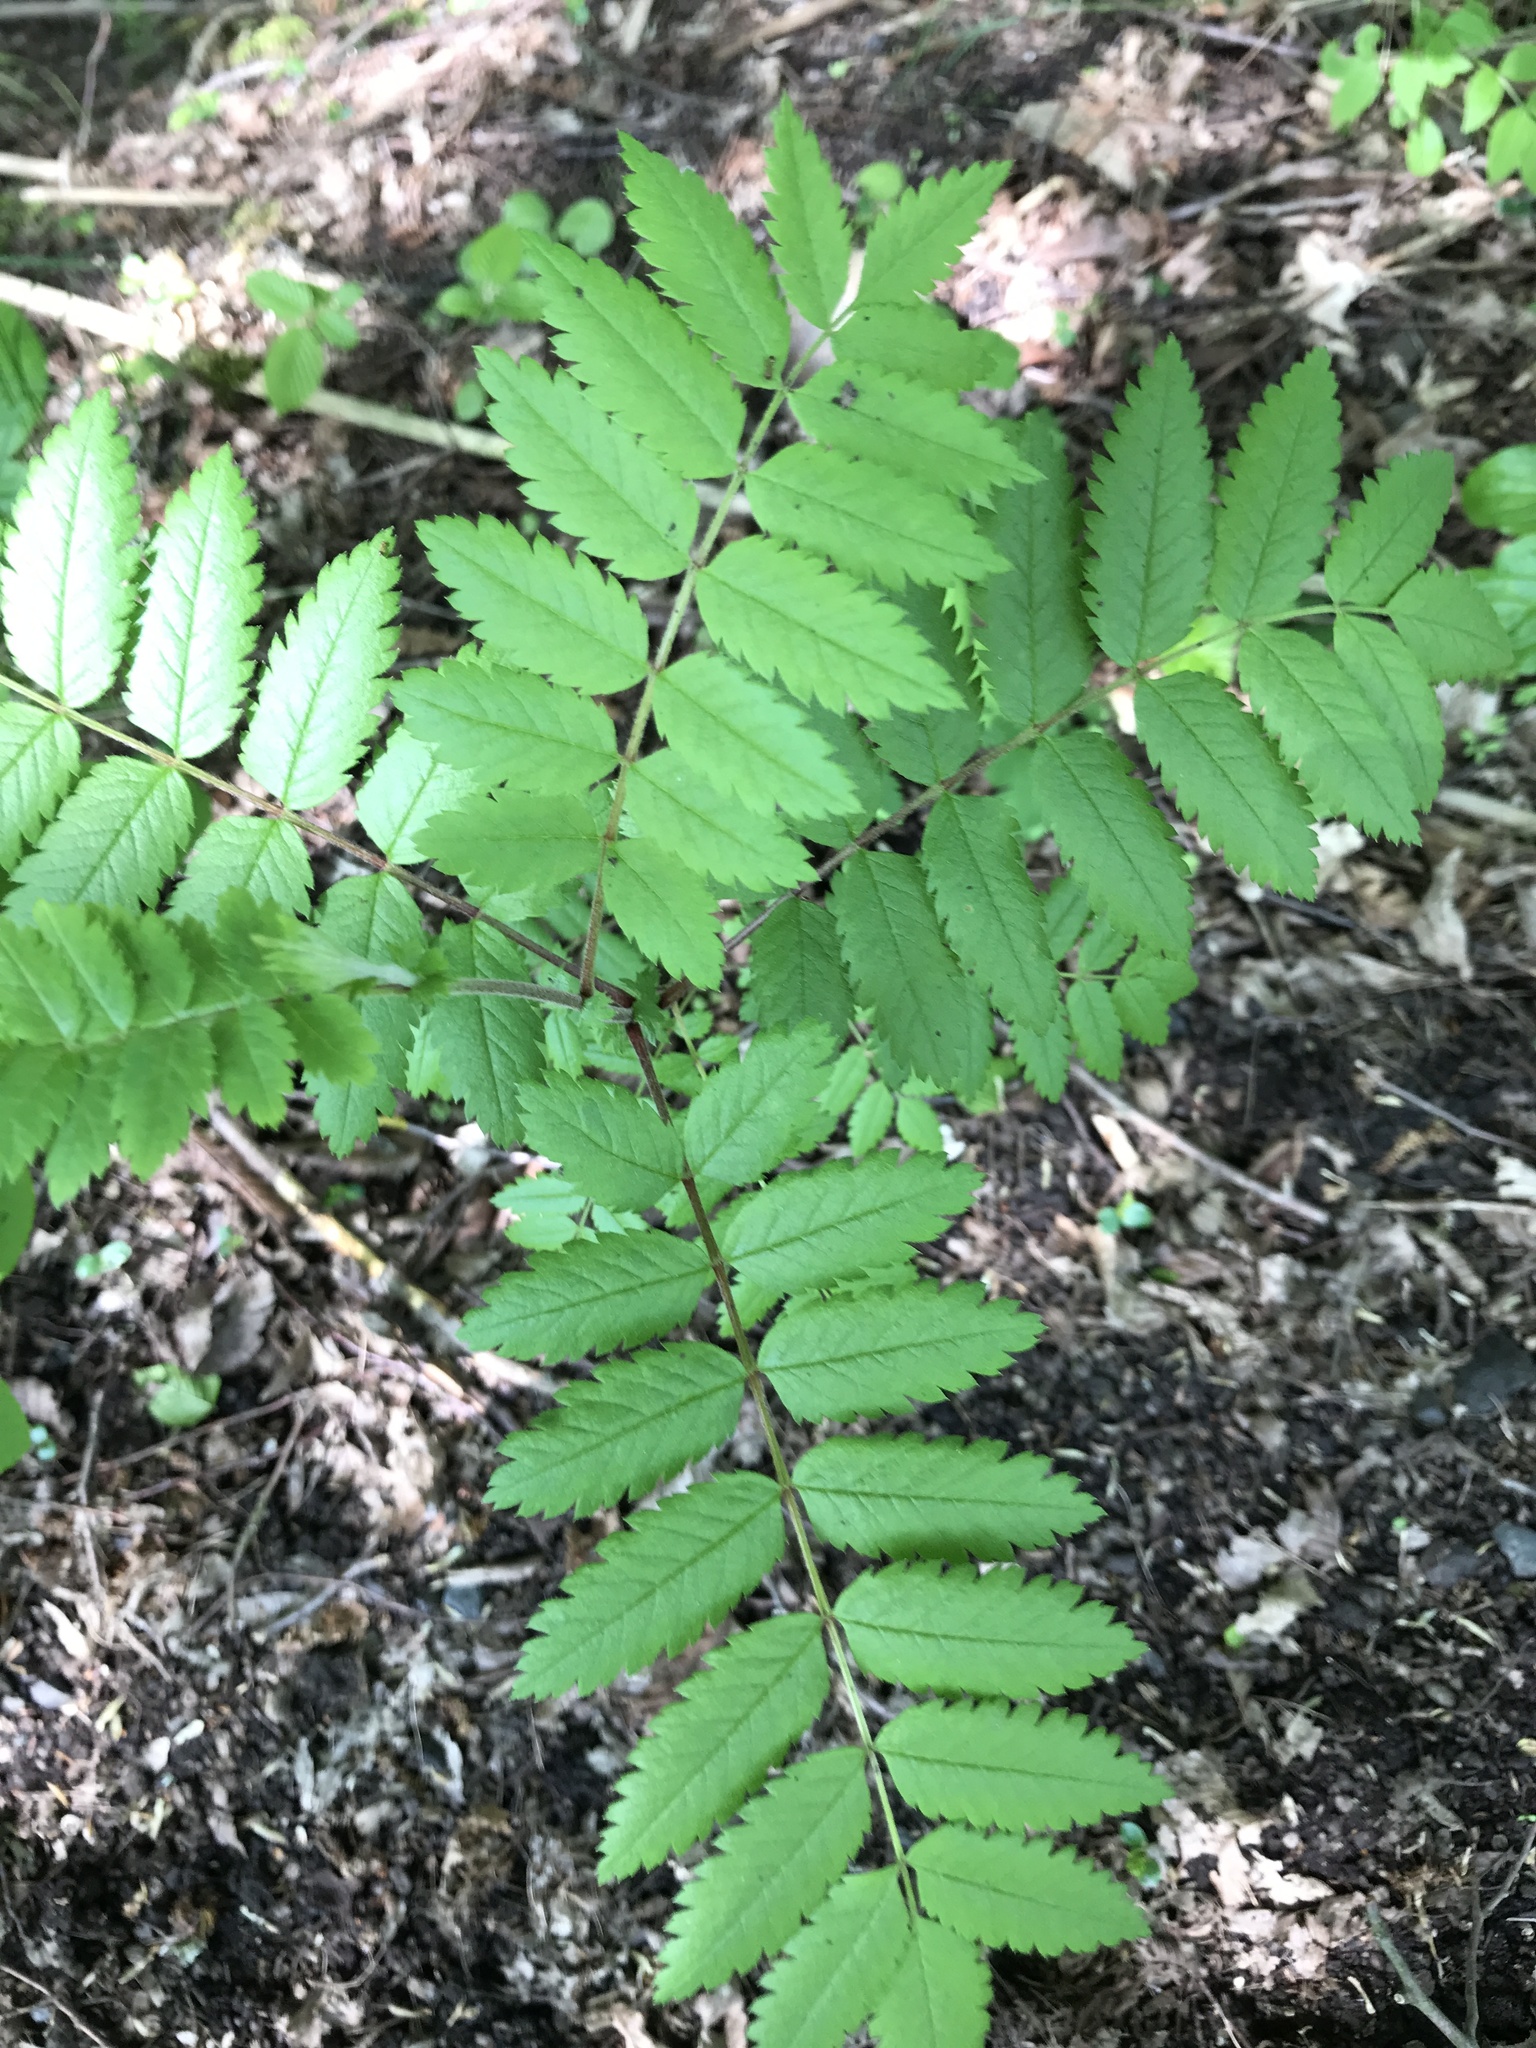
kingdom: Plantae
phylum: Tracheophyta
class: Magnoliopsida
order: Rosales
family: Rosaceae
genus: Sorbus
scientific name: Sorbus aucuparia
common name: Rowan
